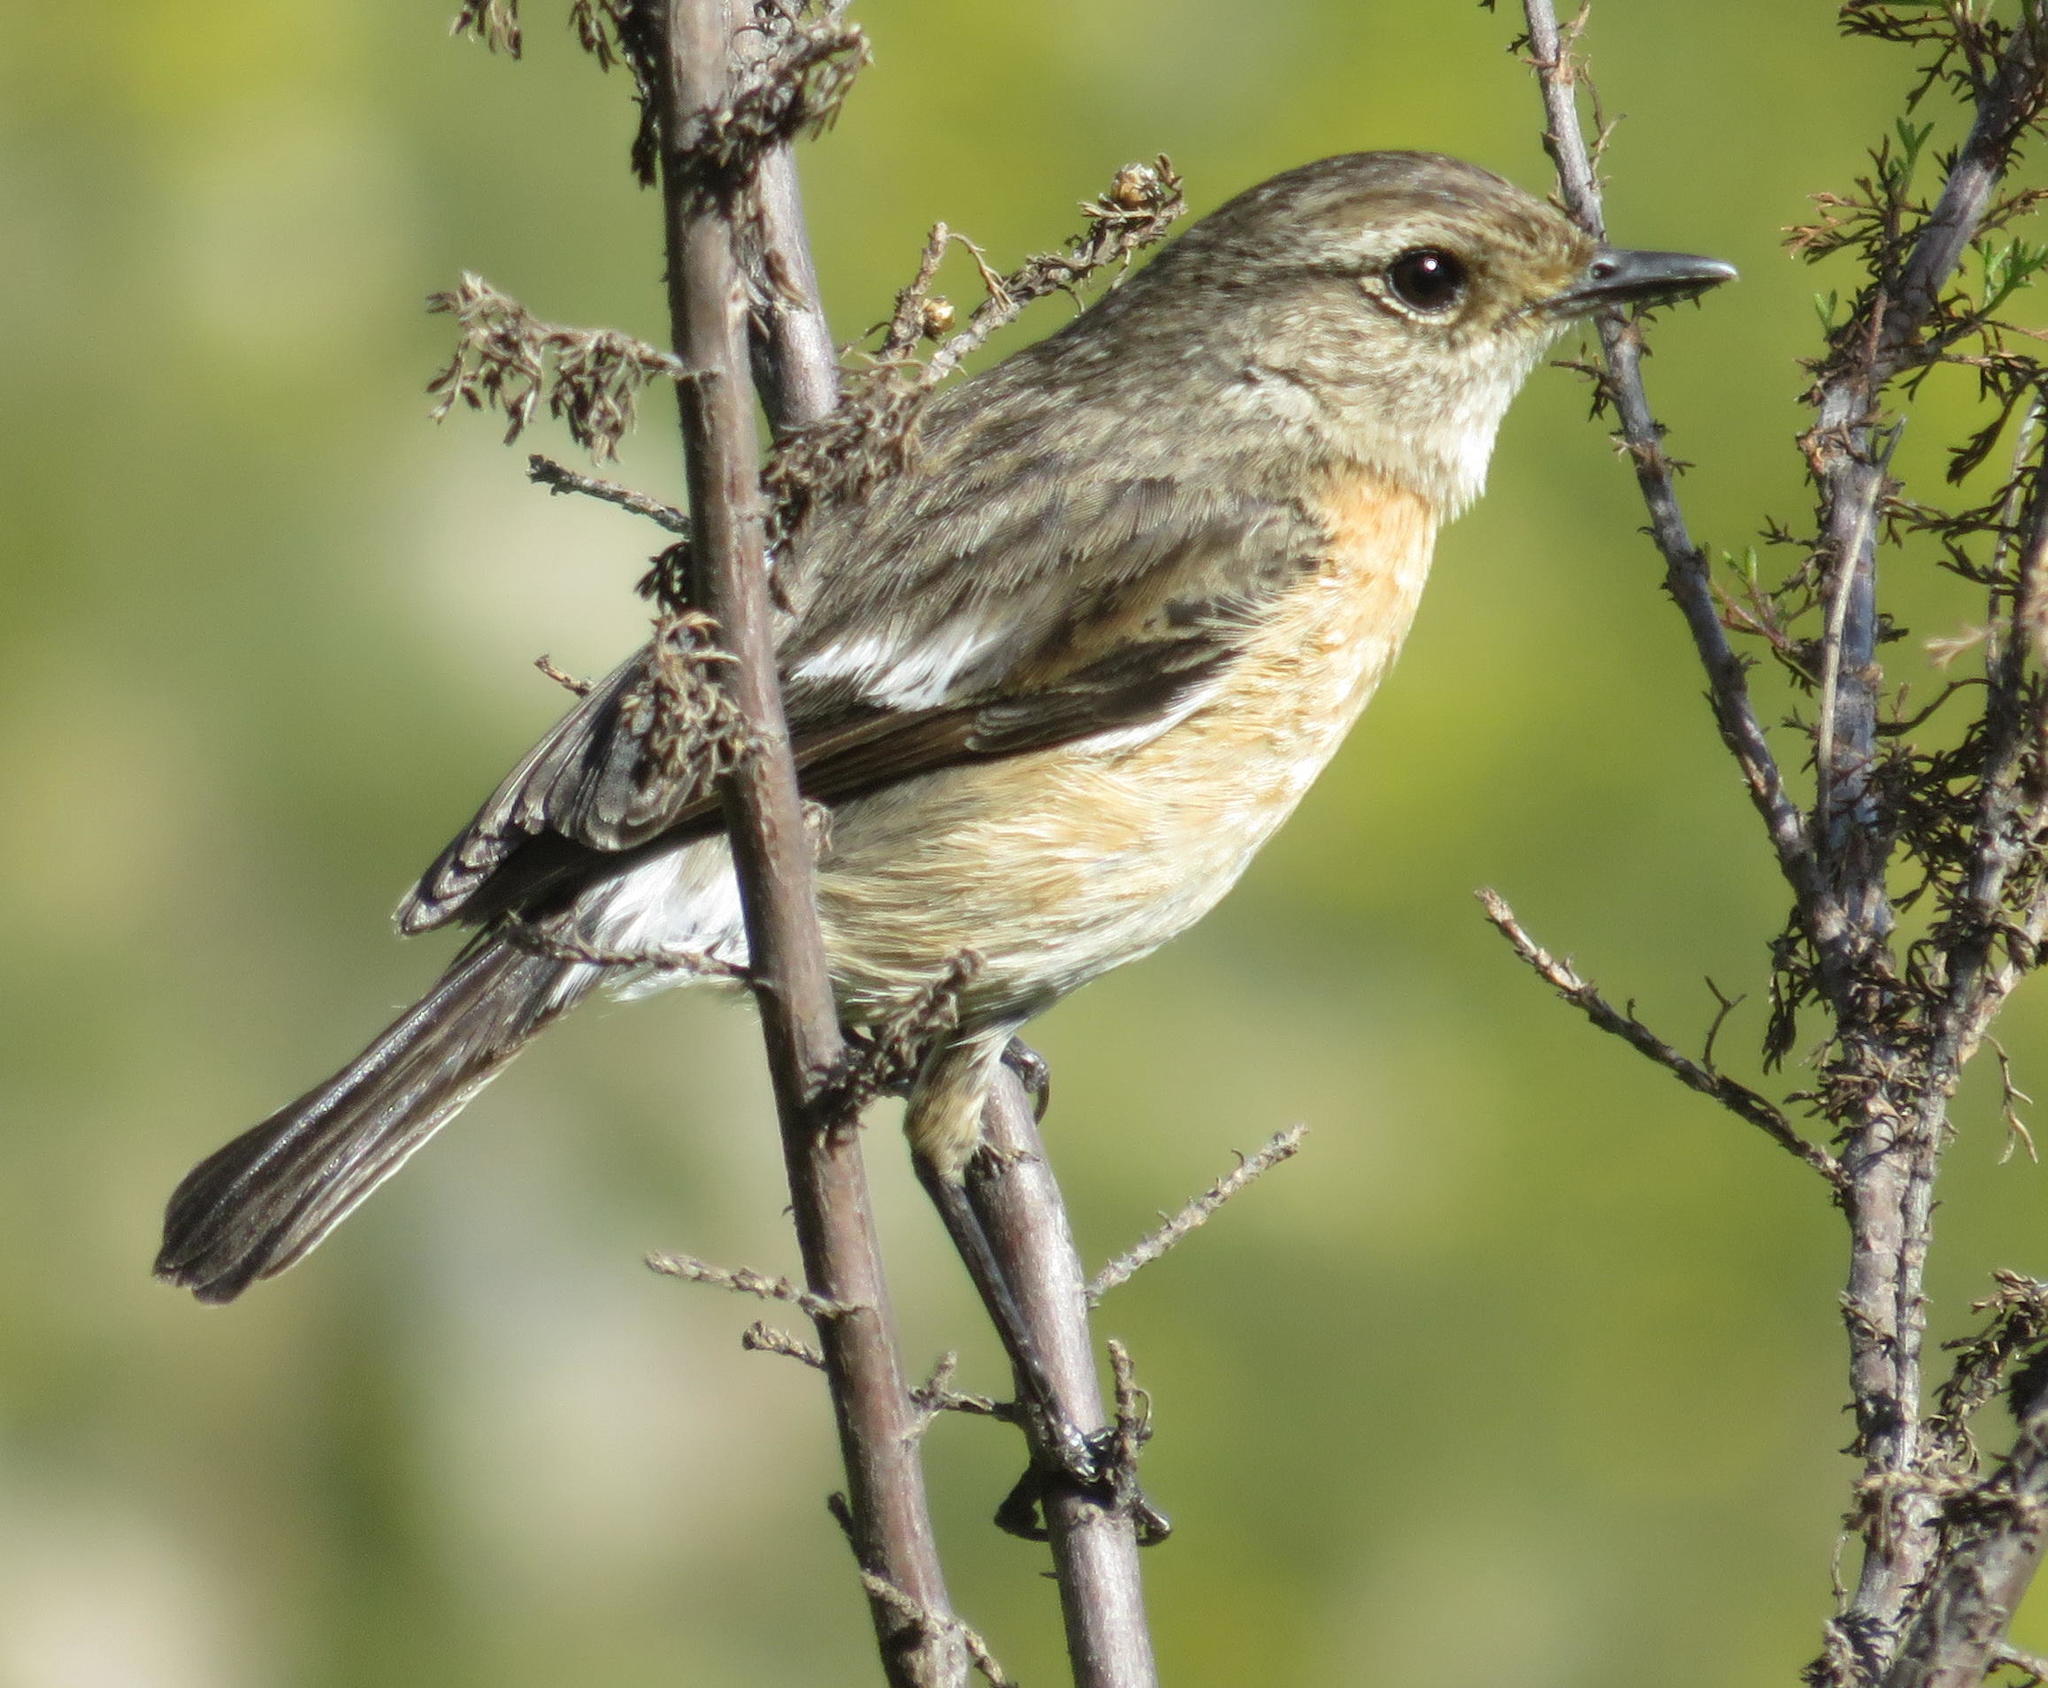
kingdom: Animalia
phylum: Chordata
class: Aves
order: Passeriformes
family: Muscicapidae
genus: Saxicola
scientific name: Saxicola torquatus
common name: African stonechat
